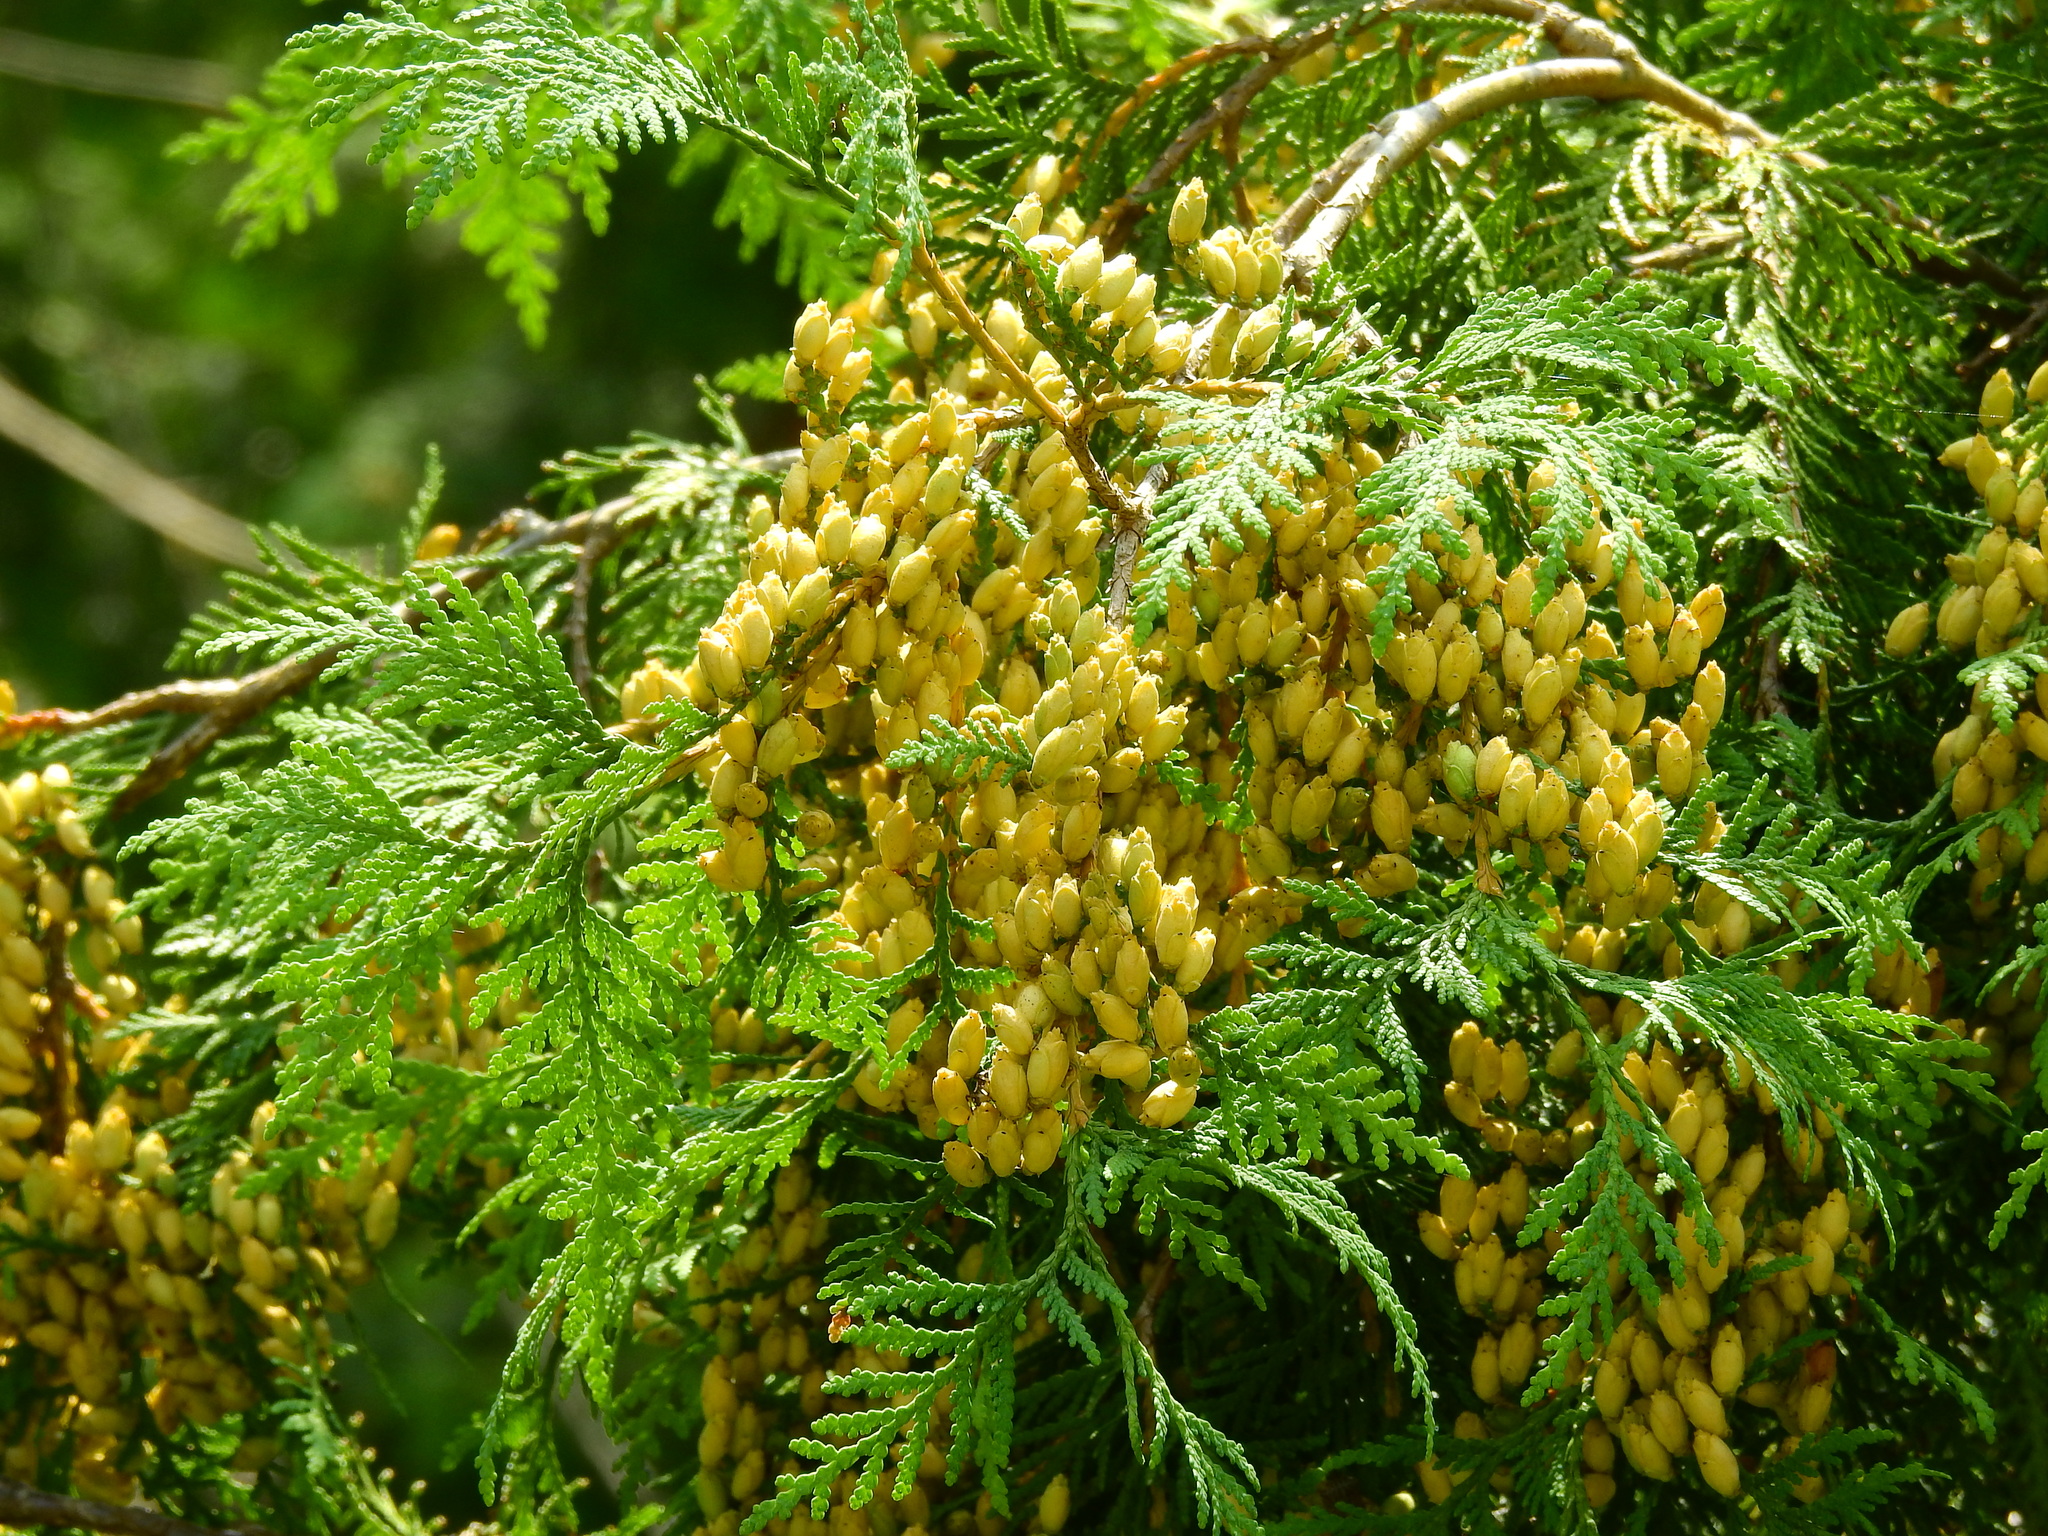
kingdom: Plantae
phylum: Tracheophyta
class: Pinopsida
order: Pinales
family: Cupressaceae
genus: Thuja
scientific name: Thuja occidentalis
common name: Northern white-cedar
